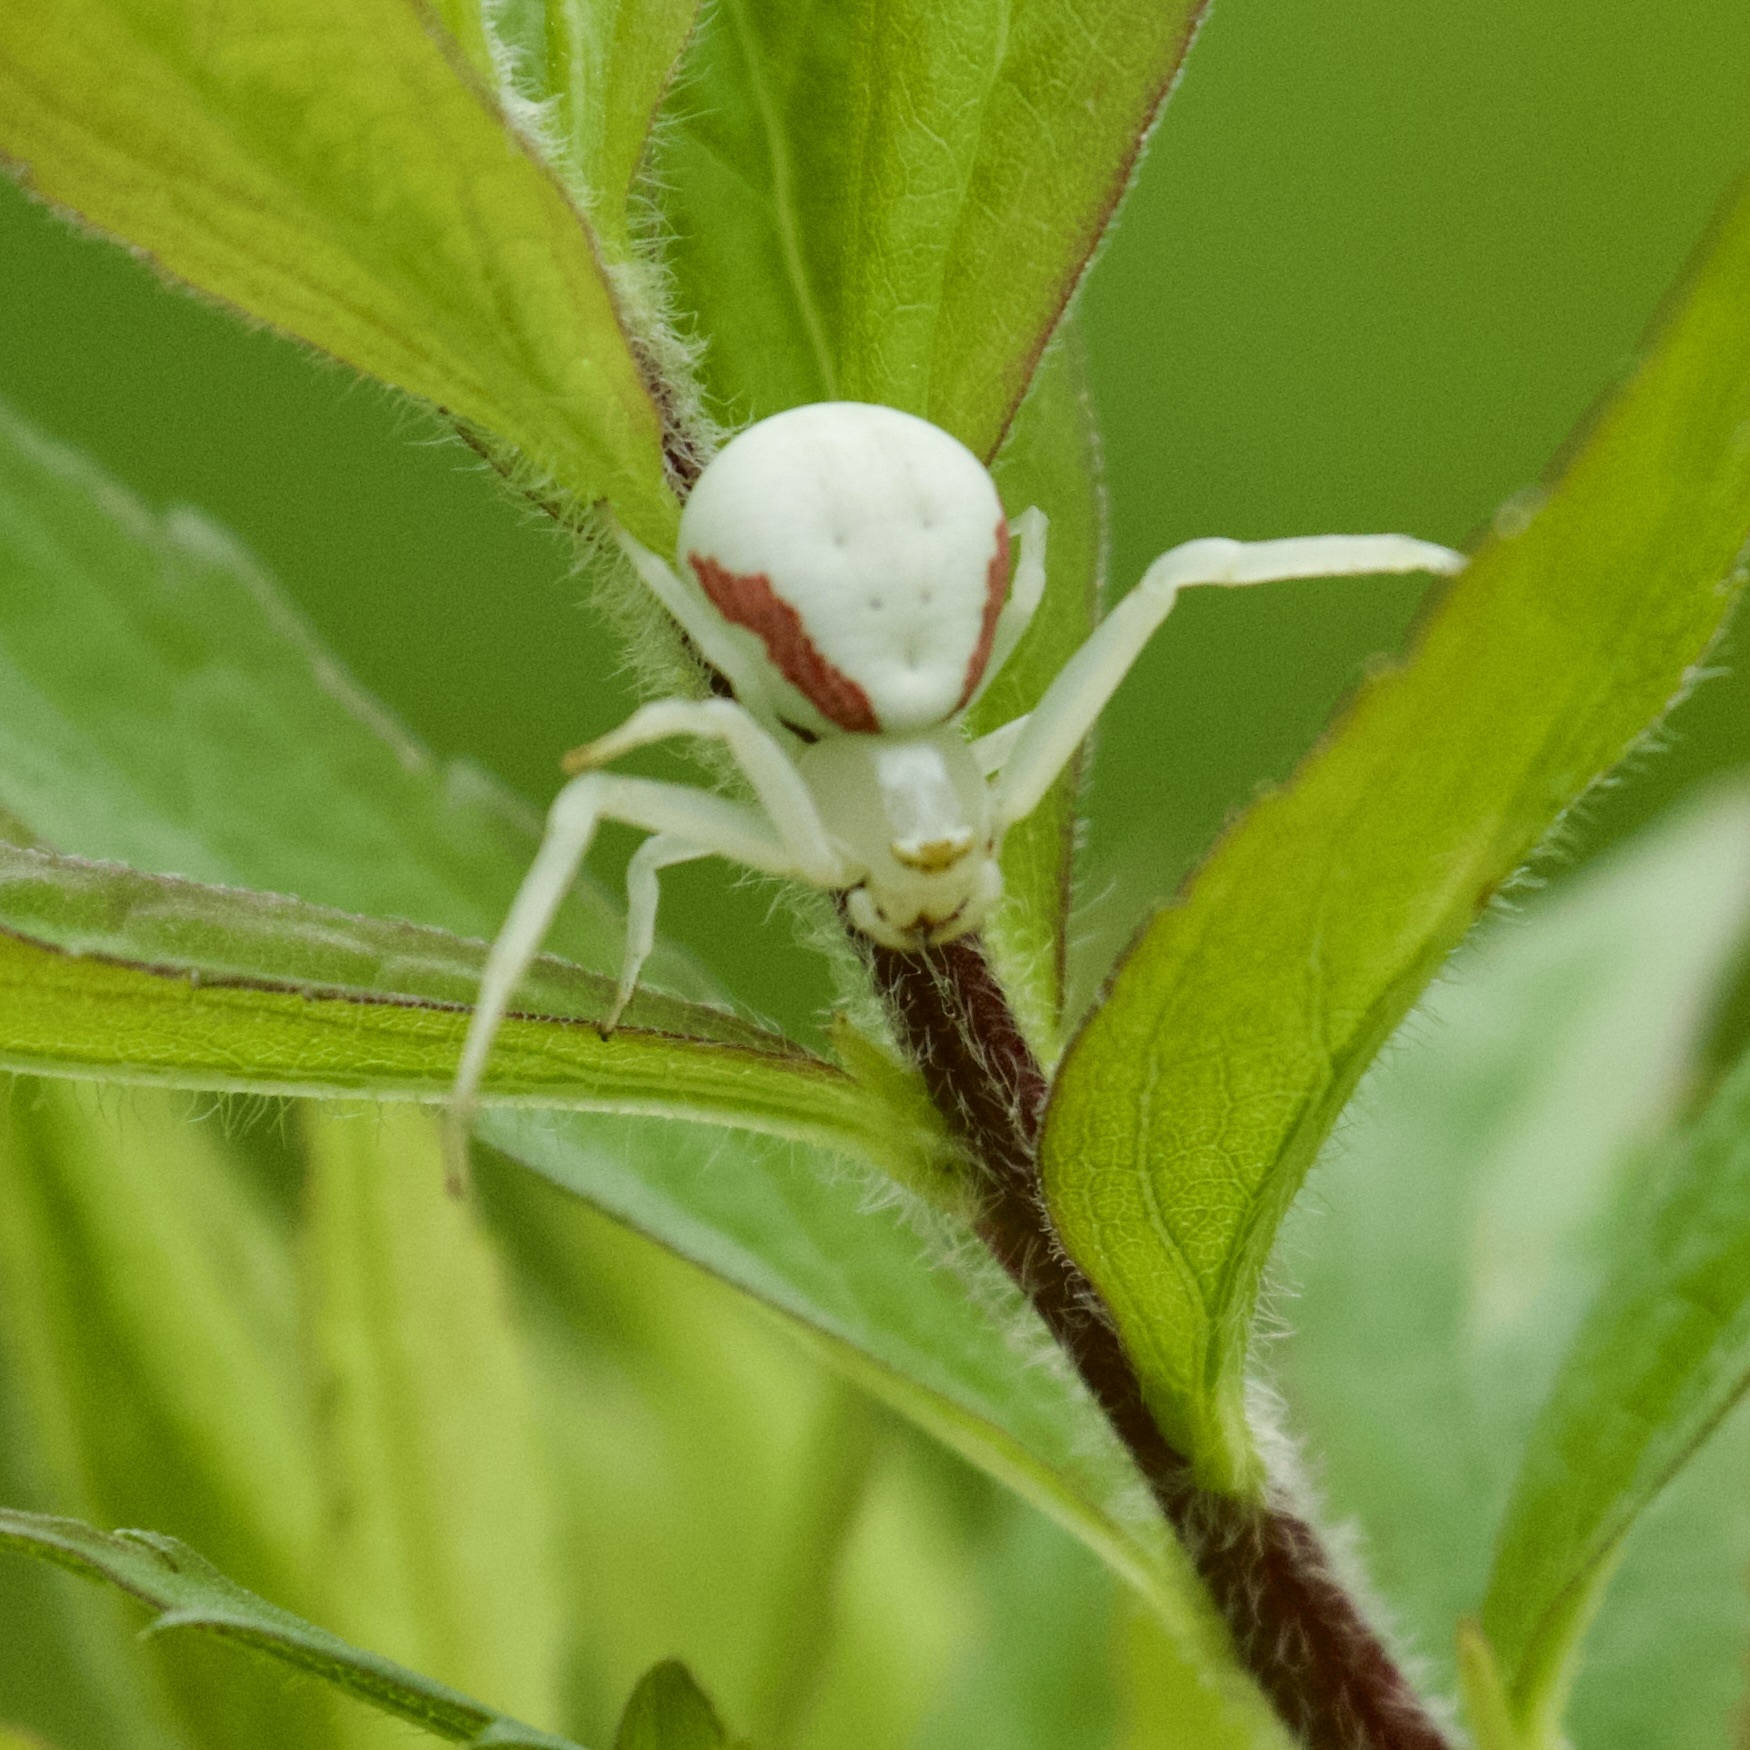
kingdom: Animalia
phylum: Arthropoda
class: Arachnida
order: Araneae
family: Thomisidae
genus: Misumena
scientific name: Misumena vatia
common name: Goldenrod crab spider
